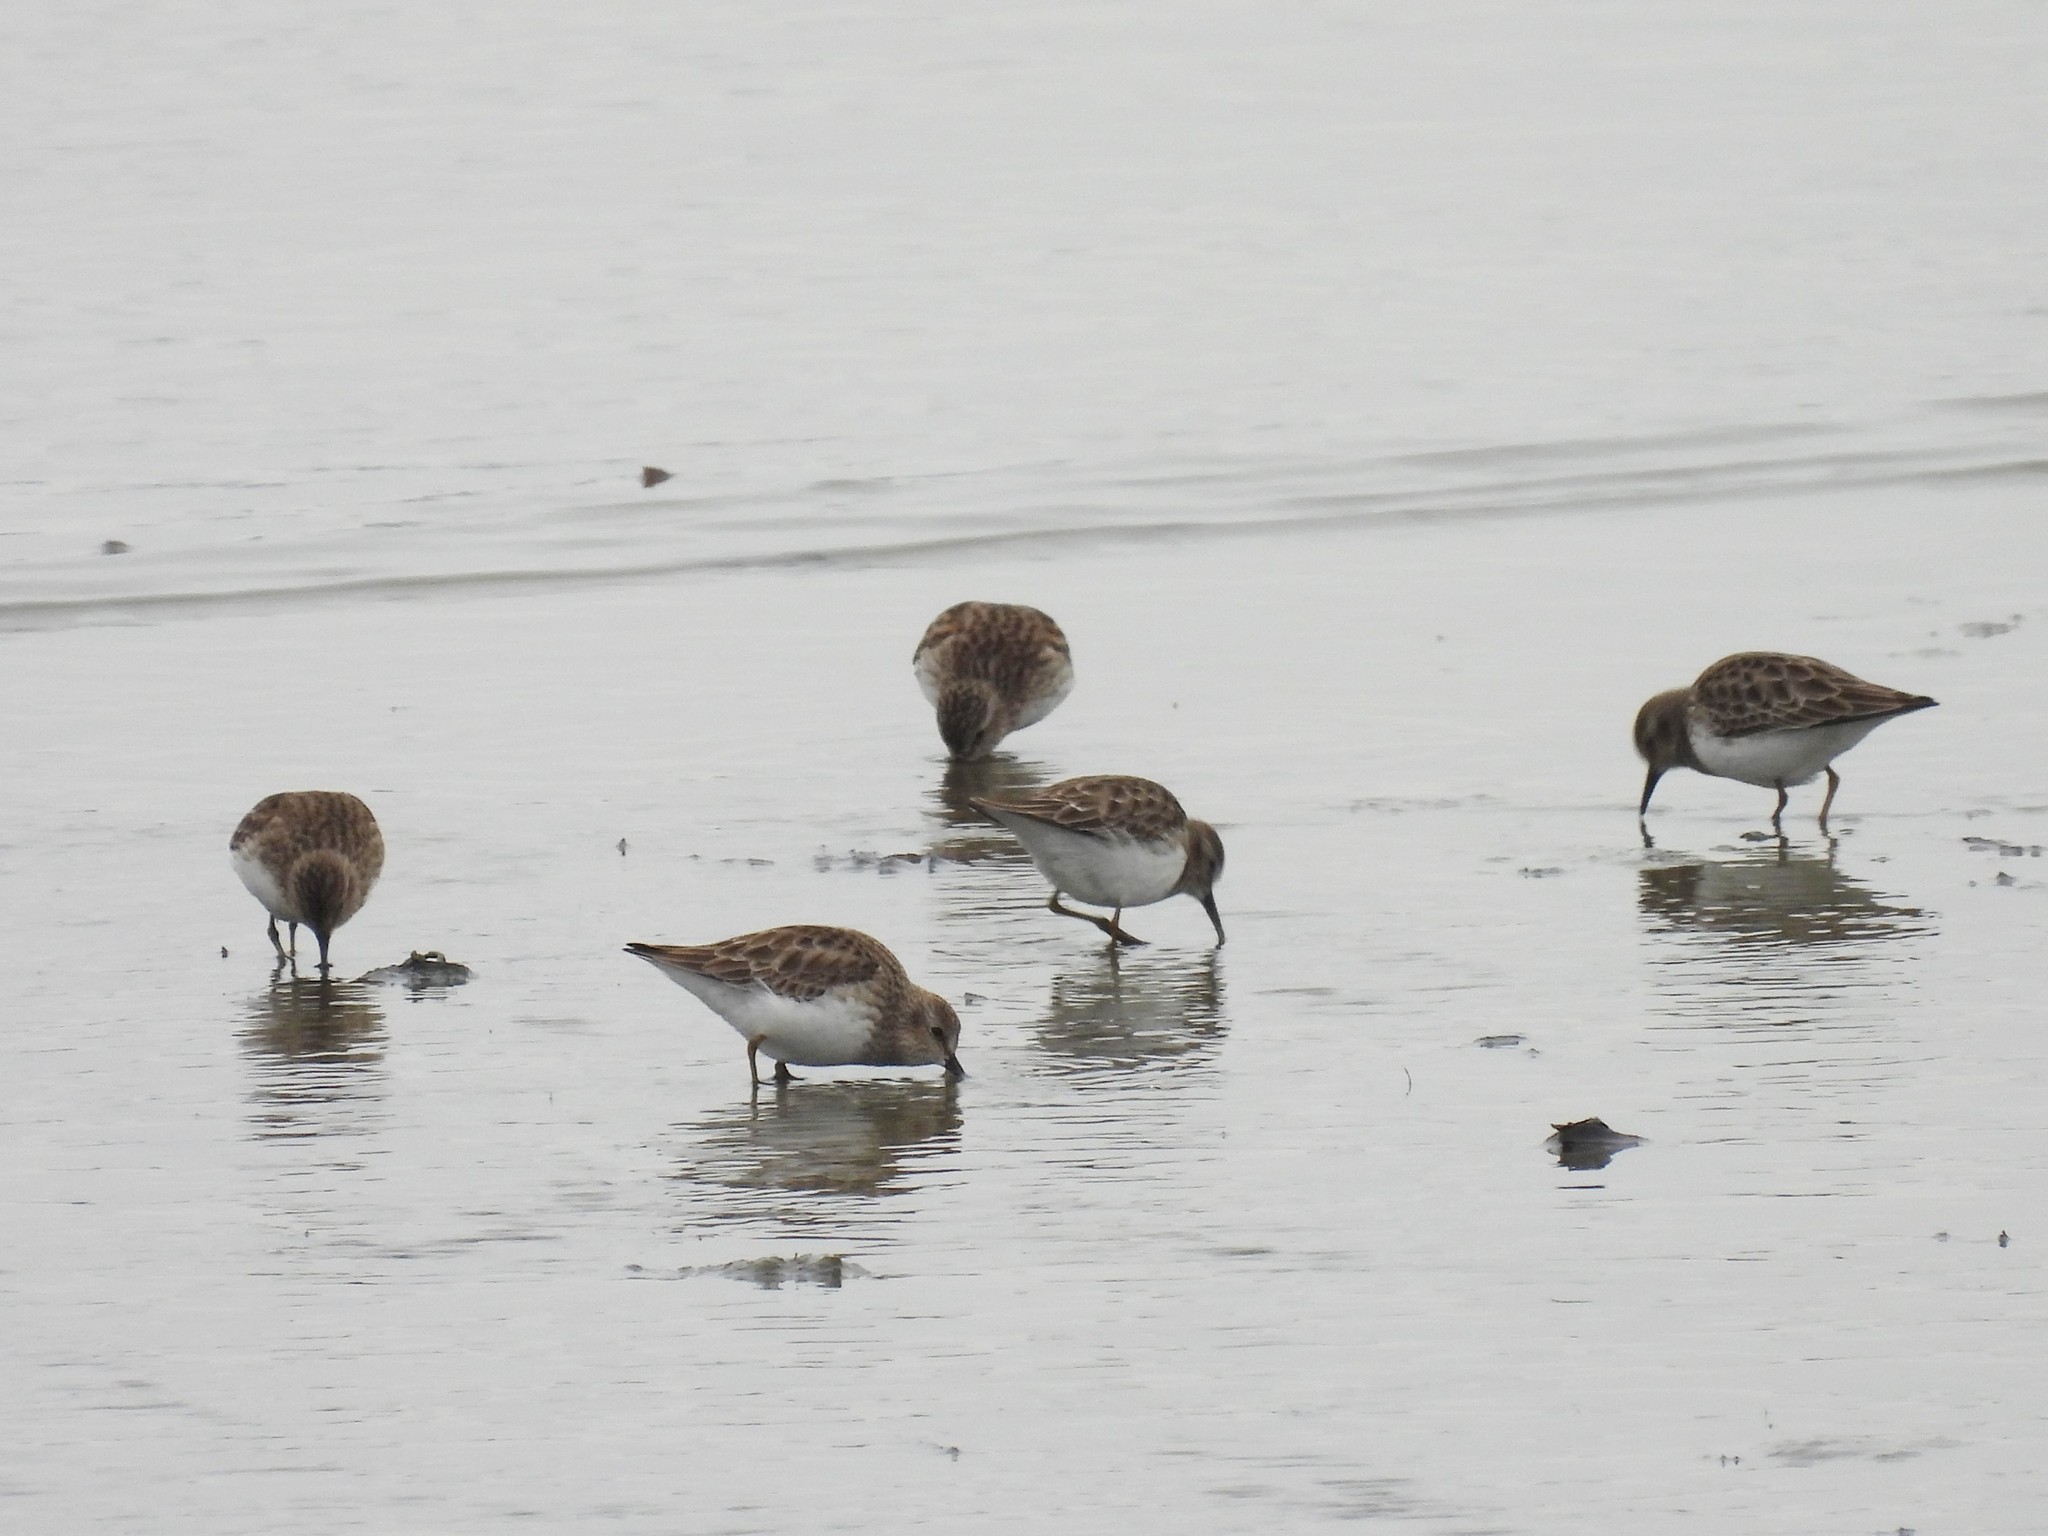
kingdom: Animalia
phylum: Chordata
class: Aves
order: Charadriiformes
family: Scolopacidae
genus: Calidris
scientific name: Calidris minutilla
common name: Least sandpiper
